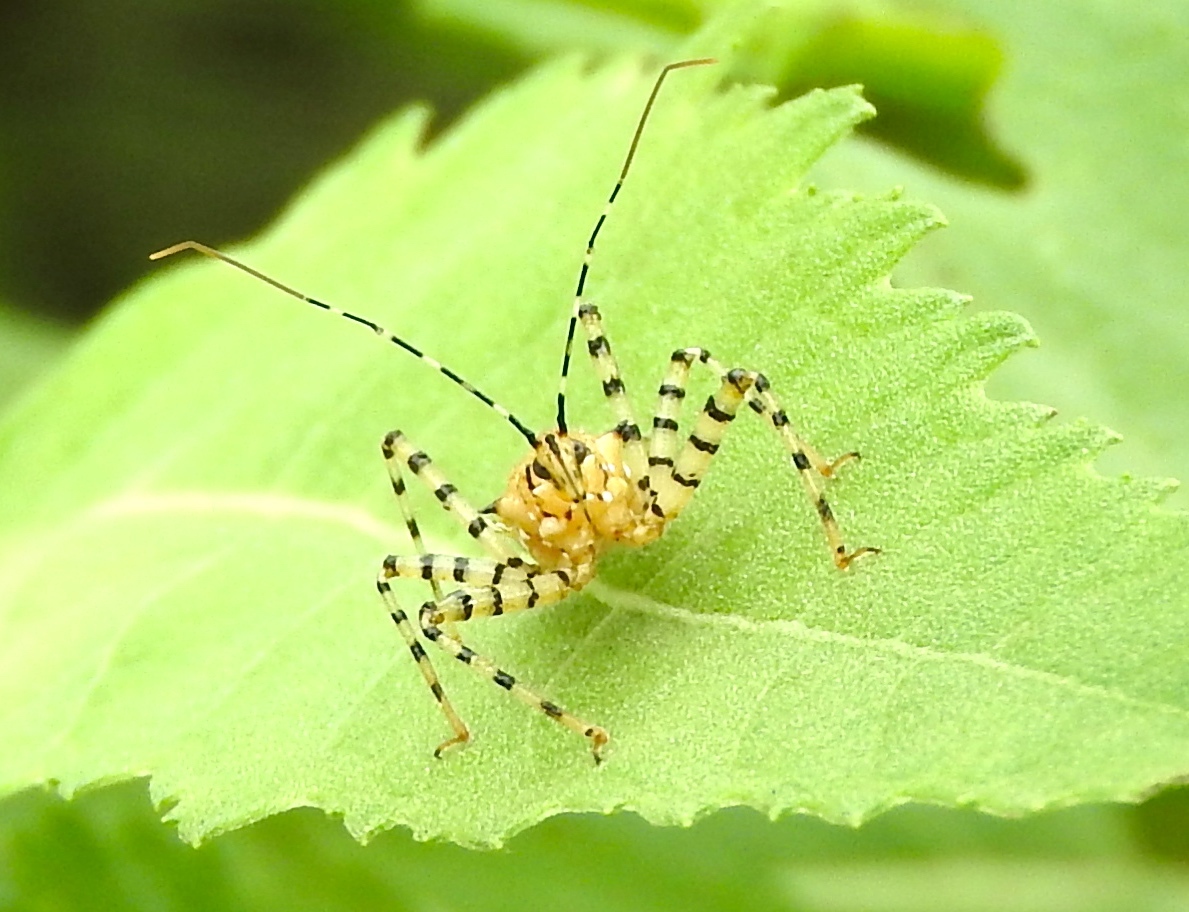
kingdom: Animalia
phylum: Arthropoda
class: Insecta
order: Hemiptera
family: Reduviidae
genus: Pselliopus
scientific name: Pselliopus
